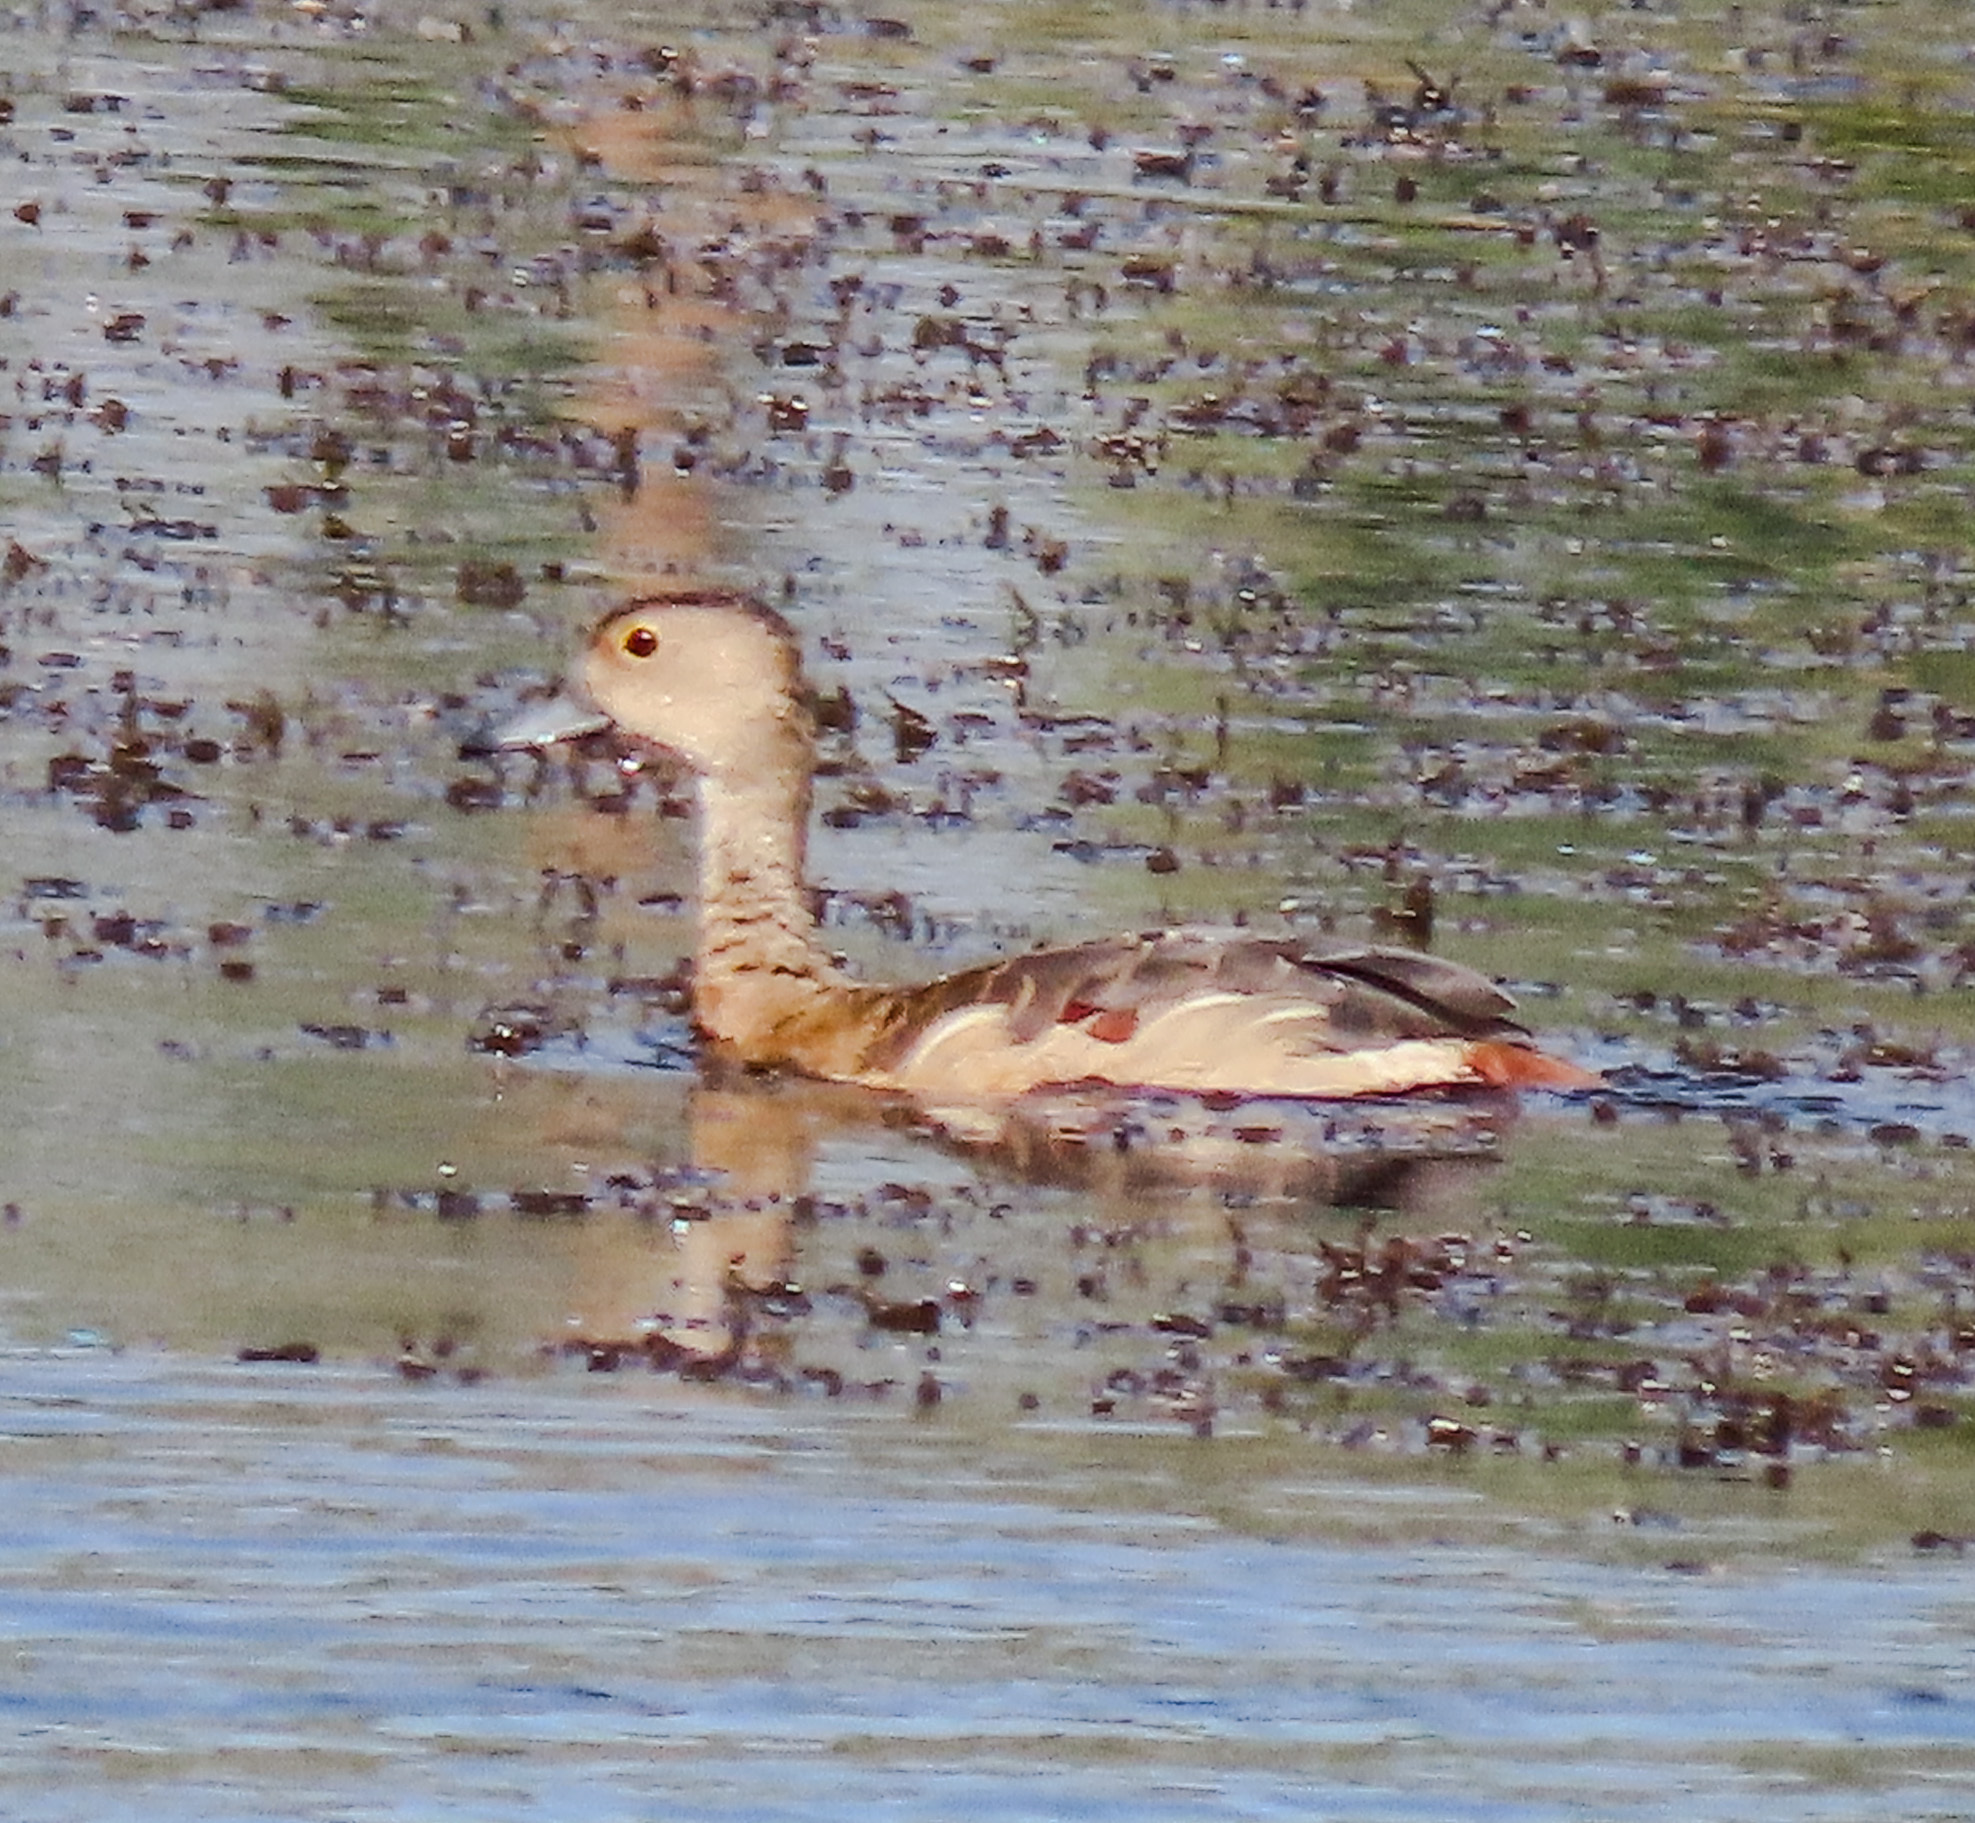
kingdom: Animalia
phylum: Chordata
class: Aves
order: Anseriformes
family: Anatidae
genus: Dendrocygna
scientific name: Dendrocygna javanica
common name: Lesser whistling-duck
